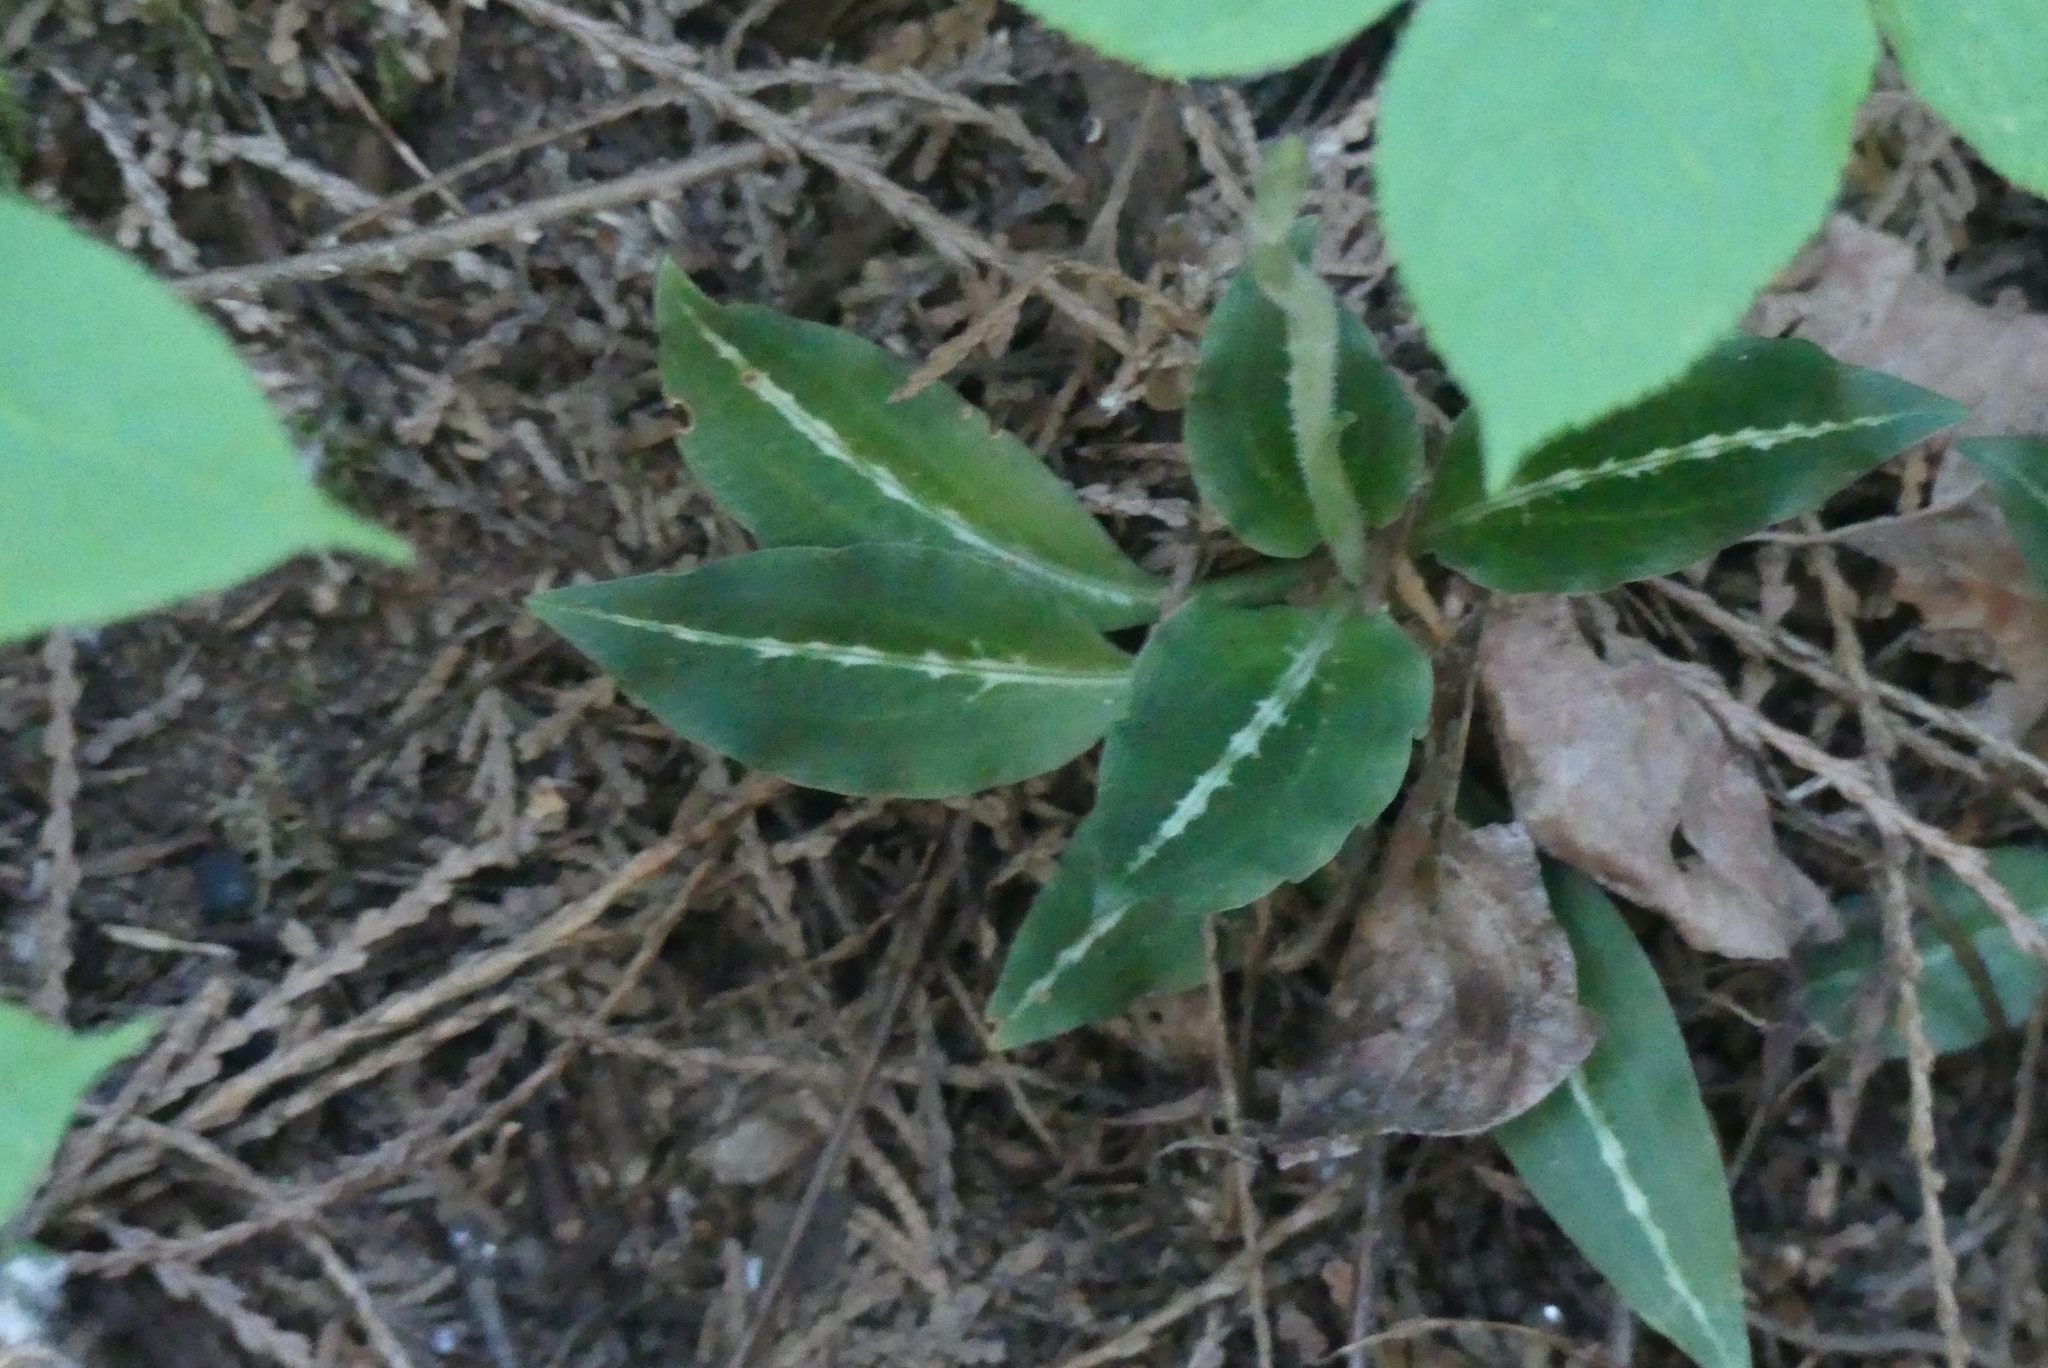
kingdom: Plantae
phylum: Tracheophyta
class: Liliopsida
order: Asparagales
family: Orchidaceae
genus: Goodyera
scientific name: Goodyera oblongifolia
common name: Giant rattlesnake-plantain
